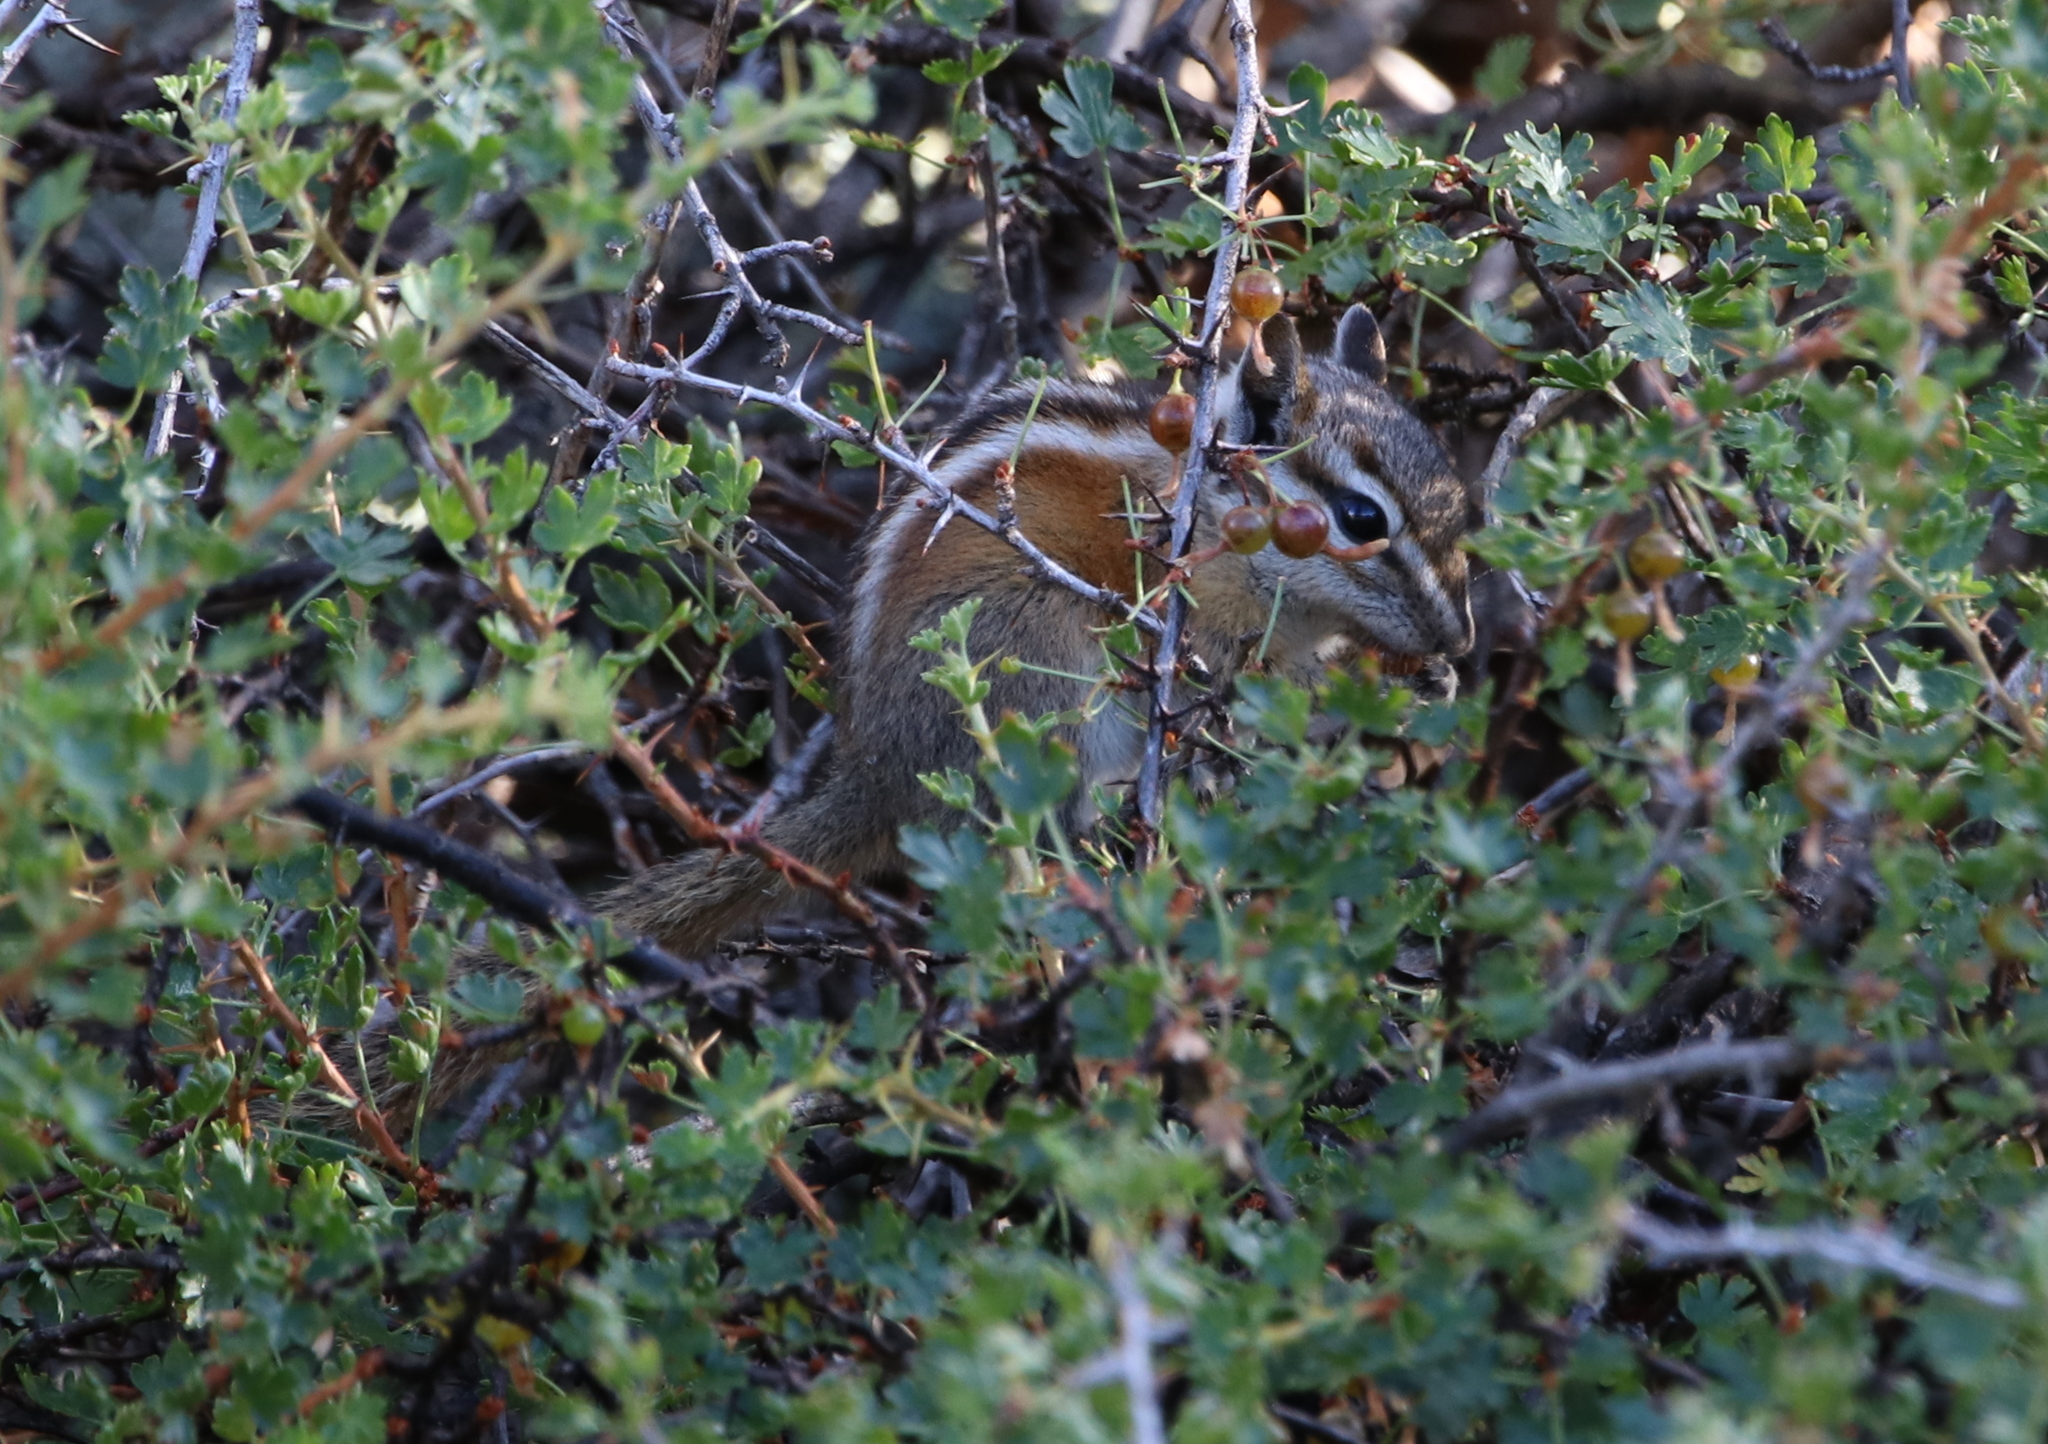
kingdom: Animalia
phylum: Chordata
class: Mammalia
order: Rodentia
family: Sciuridae
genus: Tamias
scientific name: Tamias minimus
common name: Least chipmunk
